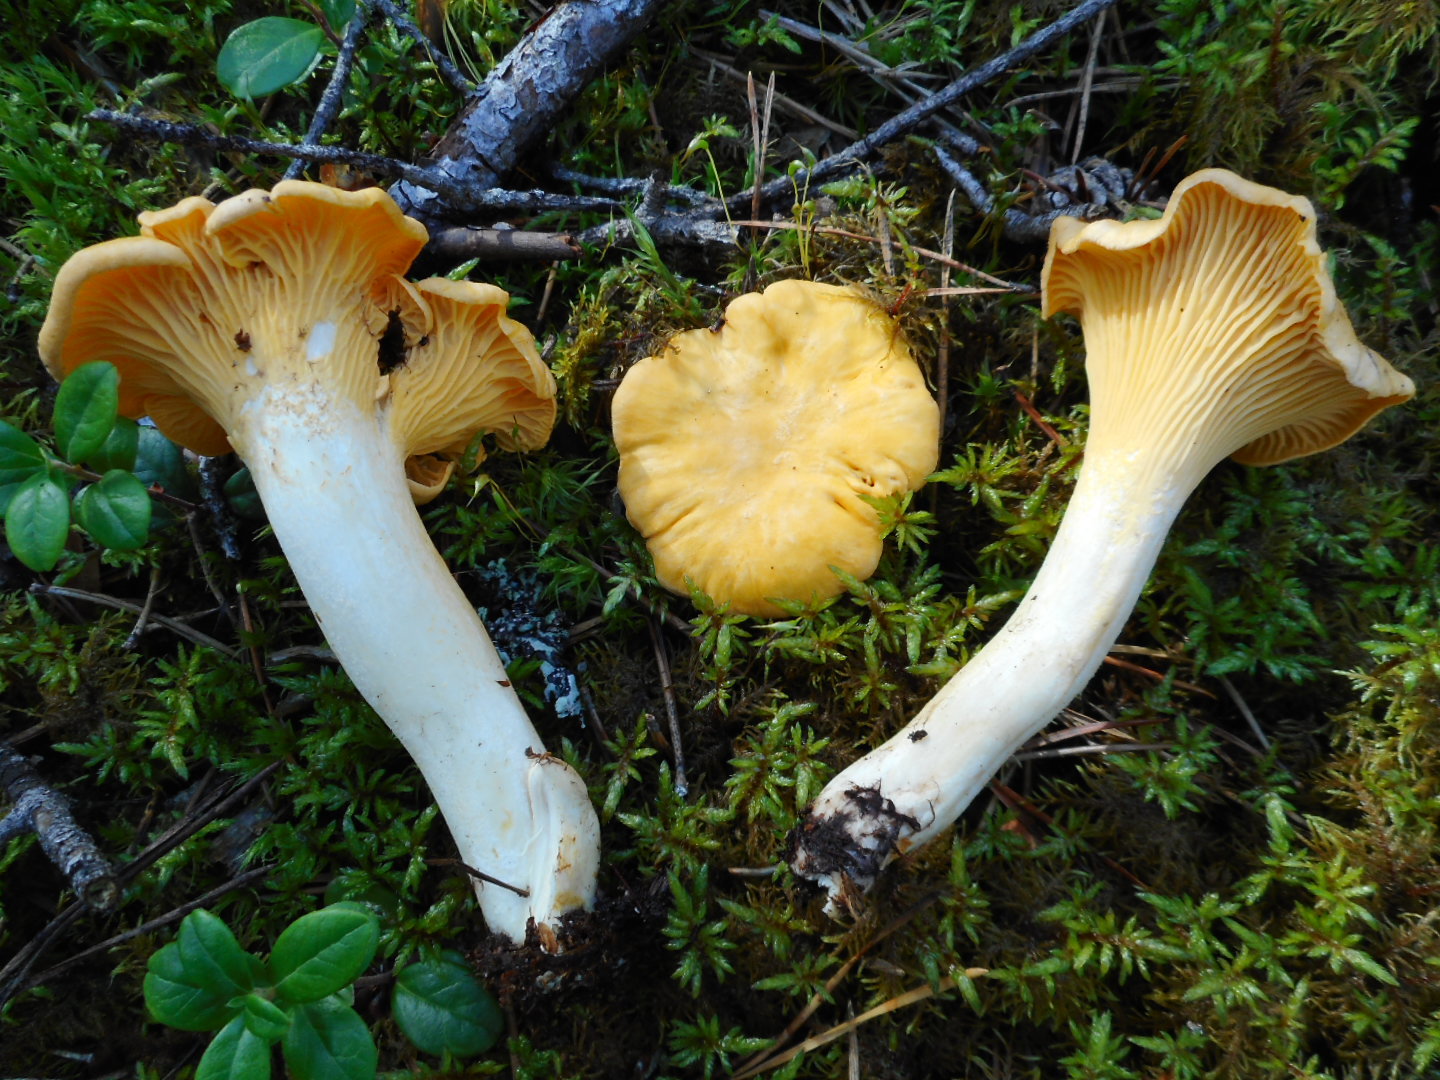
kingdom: Fungi
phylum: Basidiomycota
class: Agaricomycetes
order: Cantharellales
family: Hydnaceae
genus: Cantharellus
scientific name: Cantharellus cibarius
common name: Chanterelle
